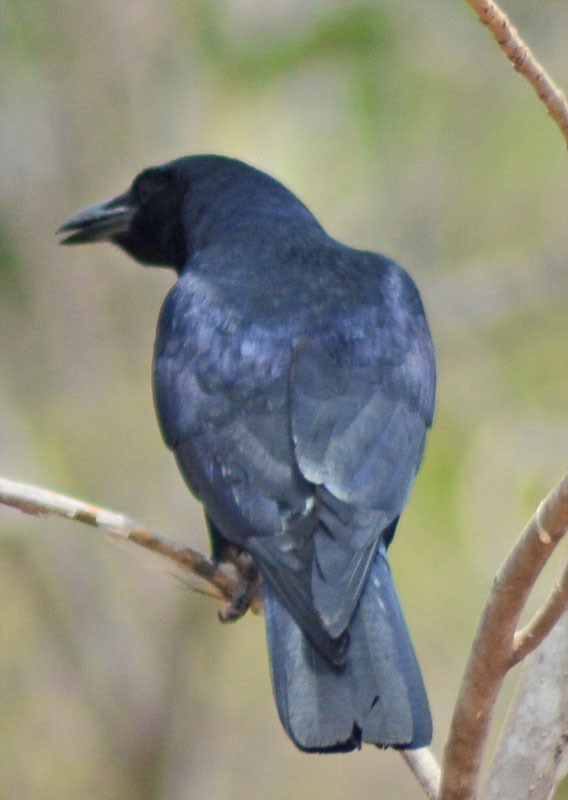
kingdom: Animalia
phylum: Chordata
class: Aves
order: Passeriformes
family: Corvidae
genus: Corvus
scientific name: Corvus sinaloae
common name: Sinaloa crow
